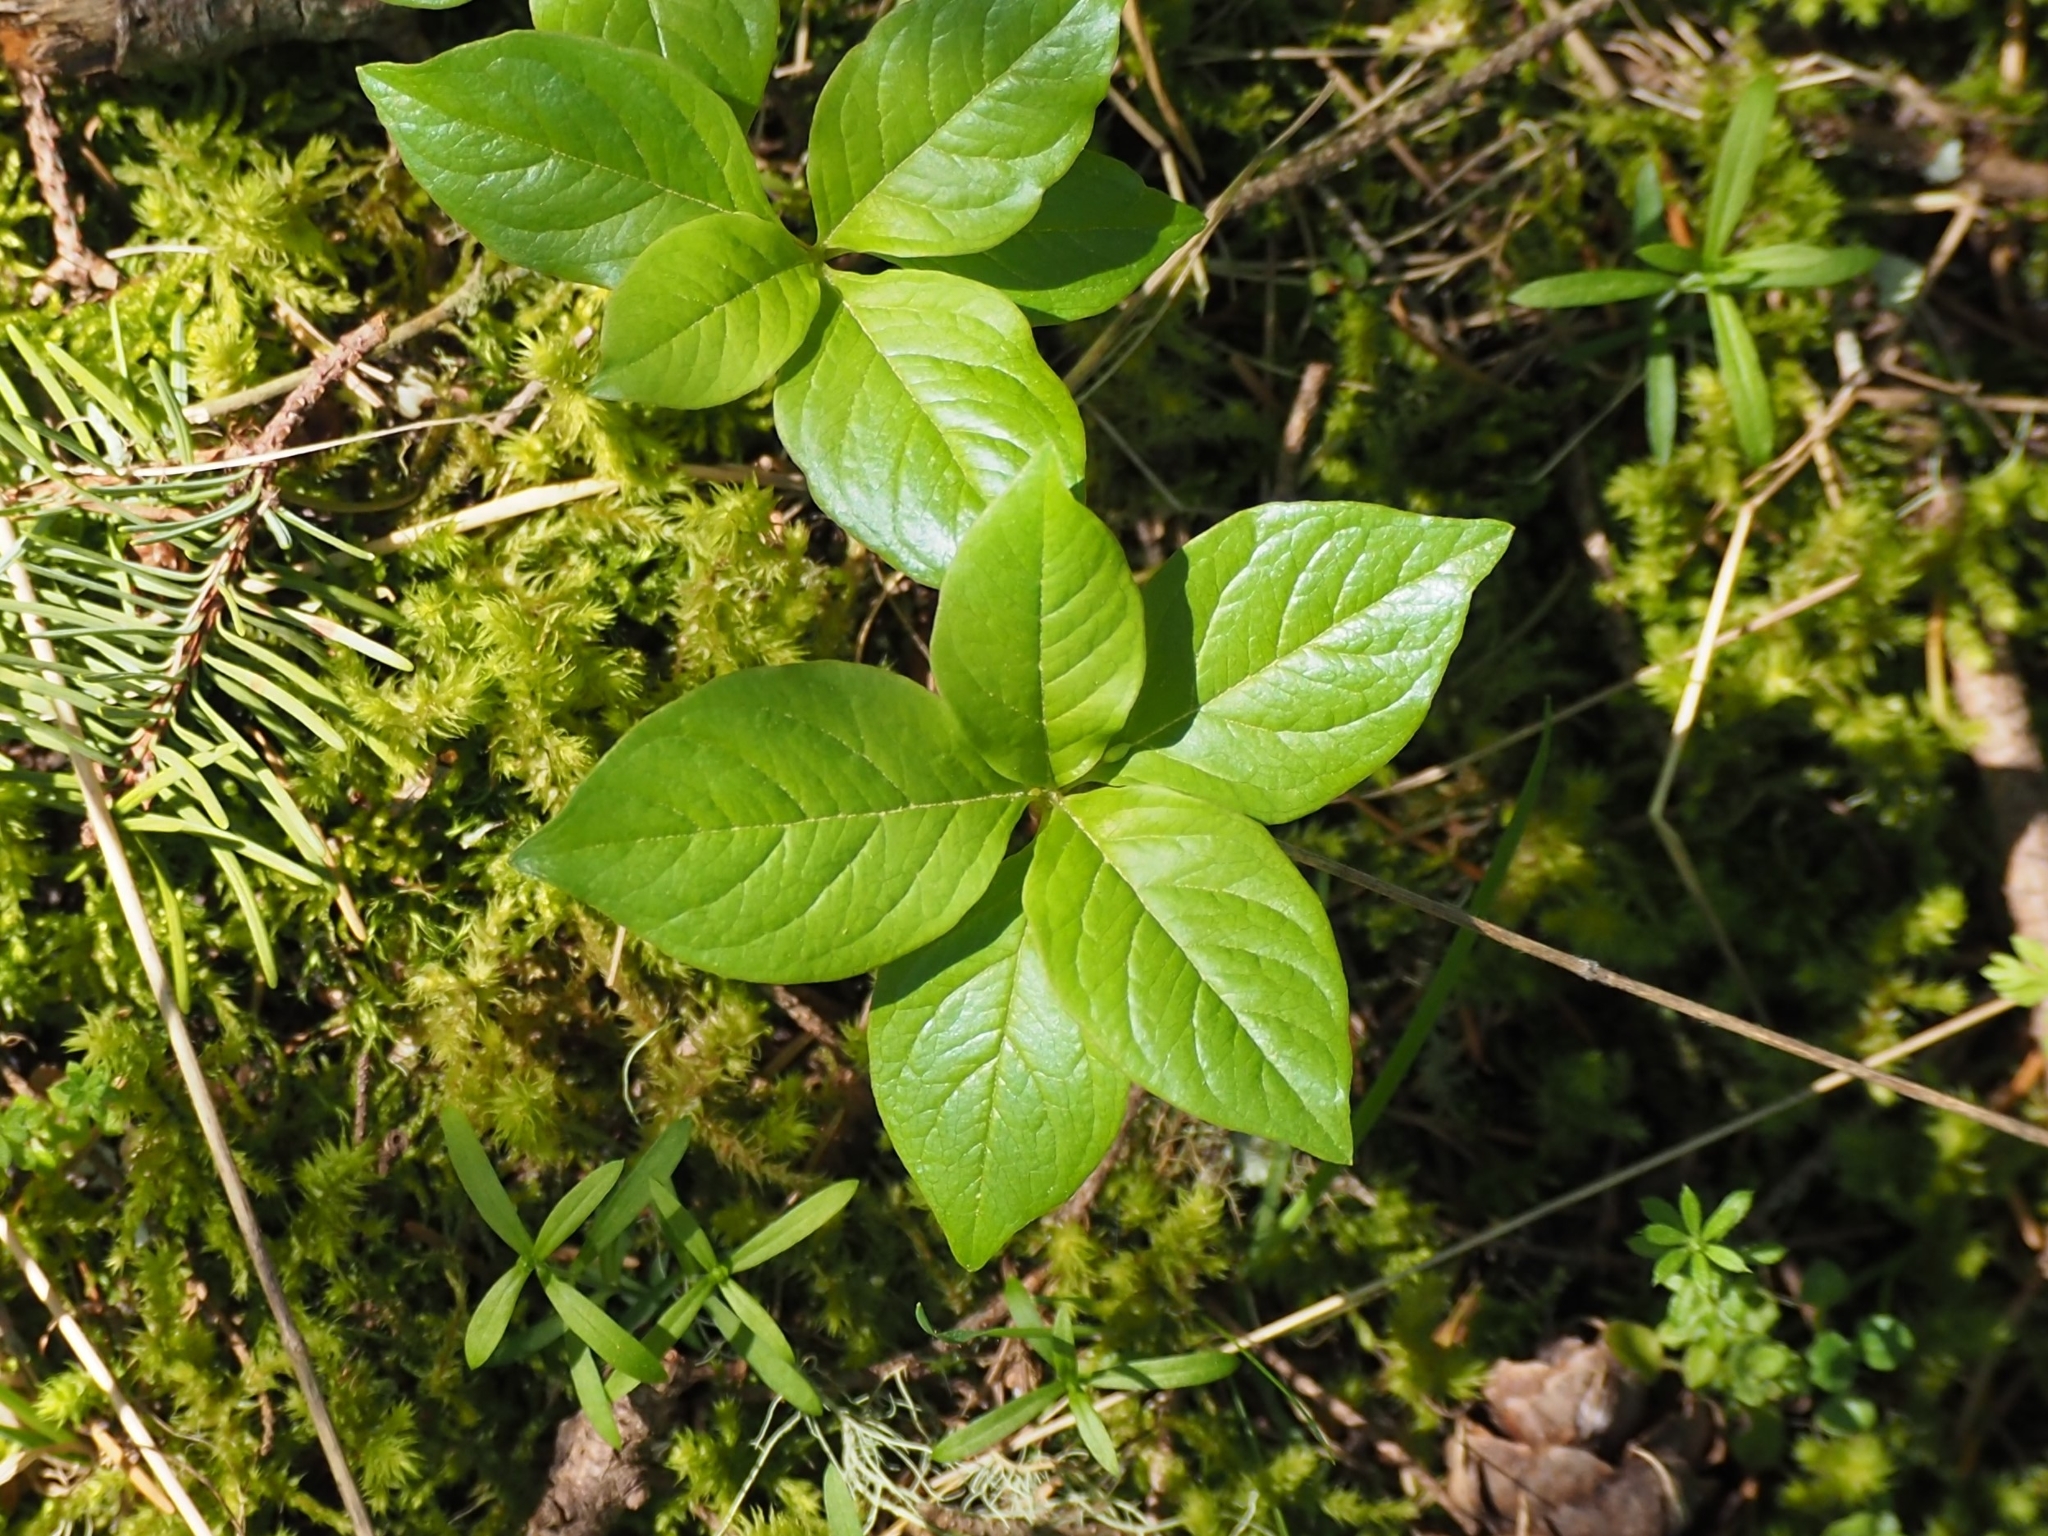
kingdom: Plantae
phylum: Tracheophyta
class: Magnoliopsida
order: Ericales
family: Primulaceae
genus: Lysimachia
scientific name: Lysimachia latifolia
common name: Pacific starflower
